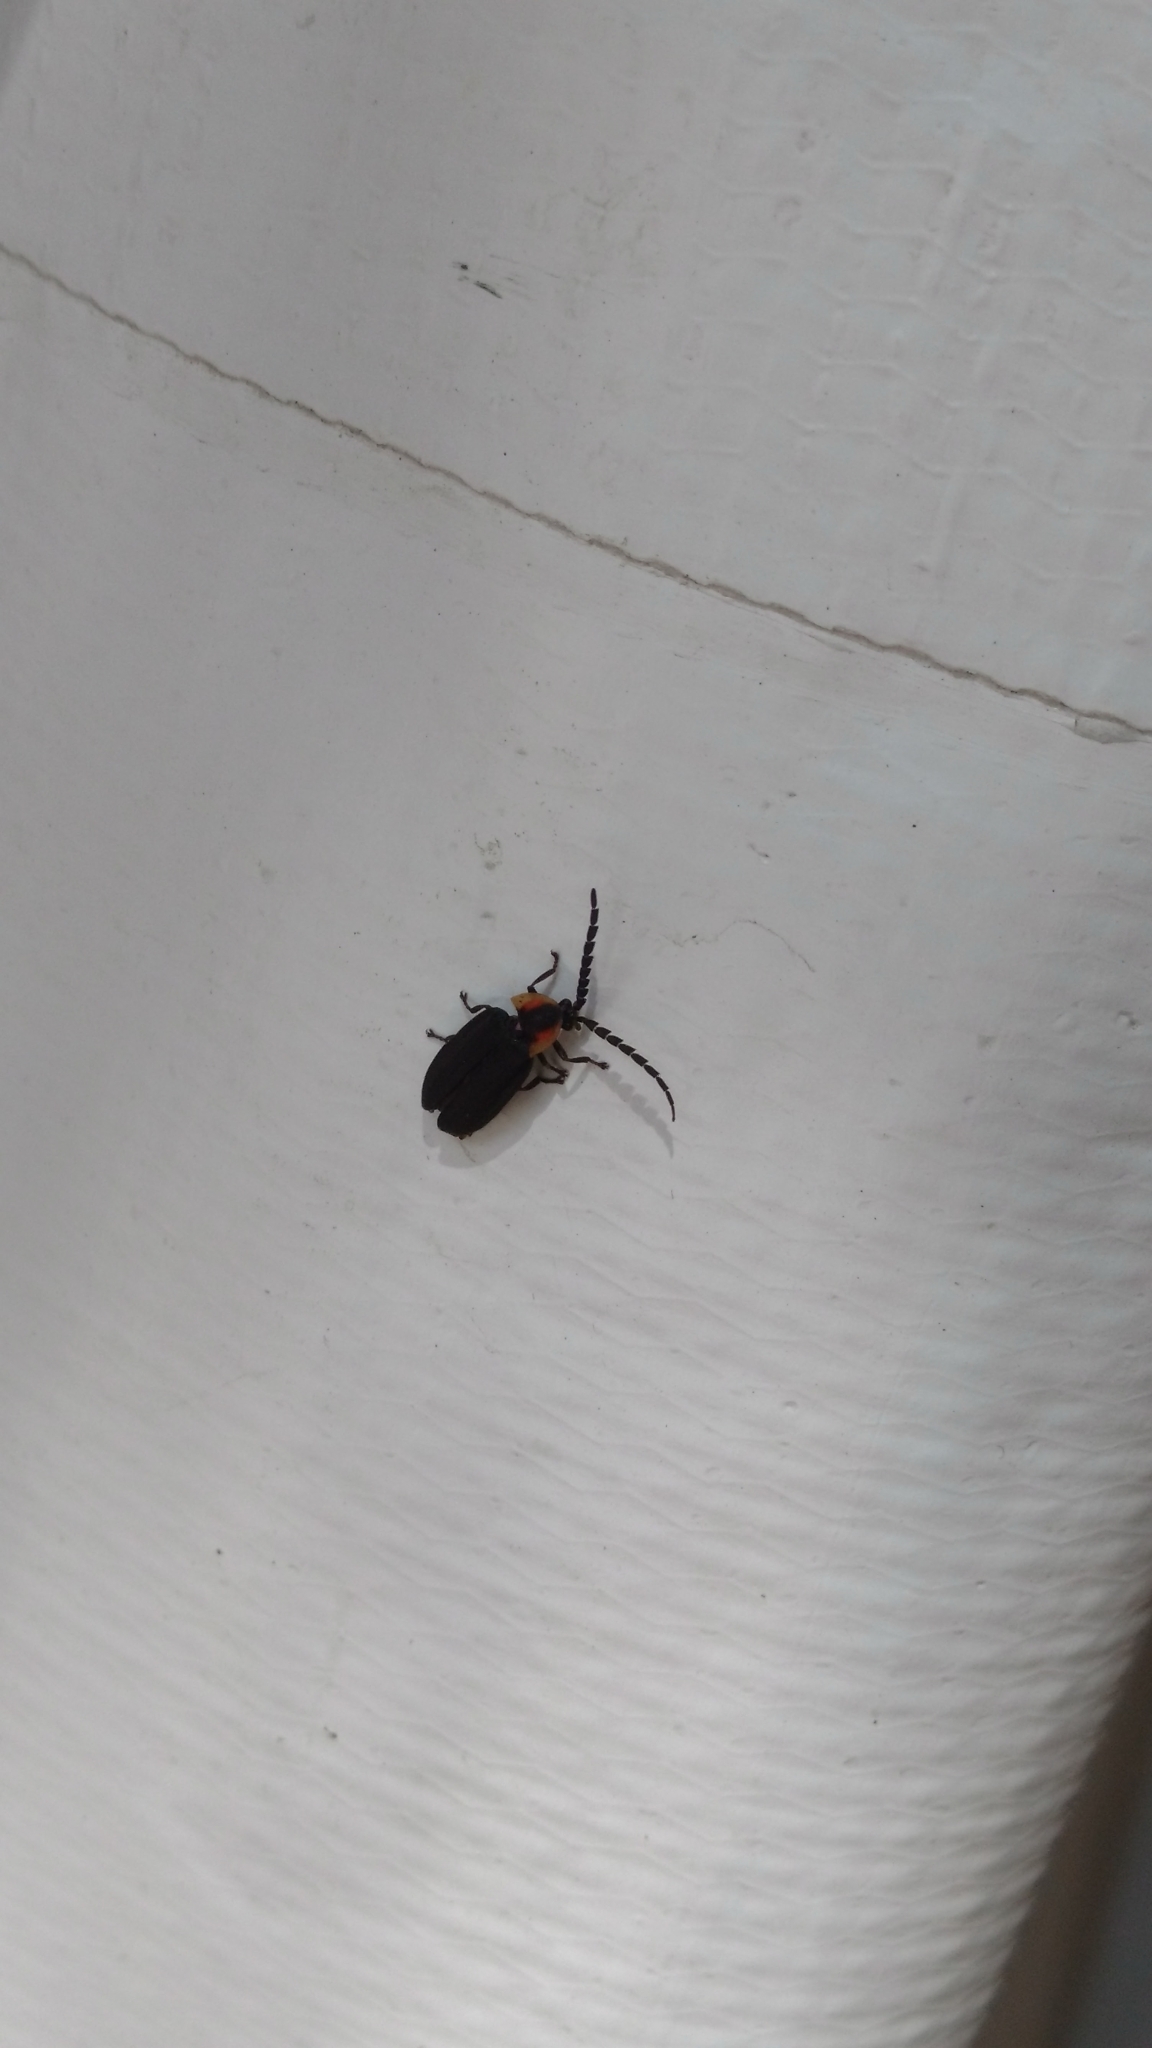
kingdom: Animalia
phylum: Arthropoda
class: Insecta
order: Coleoptera
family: Lampyridae
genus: Lucidota
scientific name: Lucidota atra
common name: Black firefly
